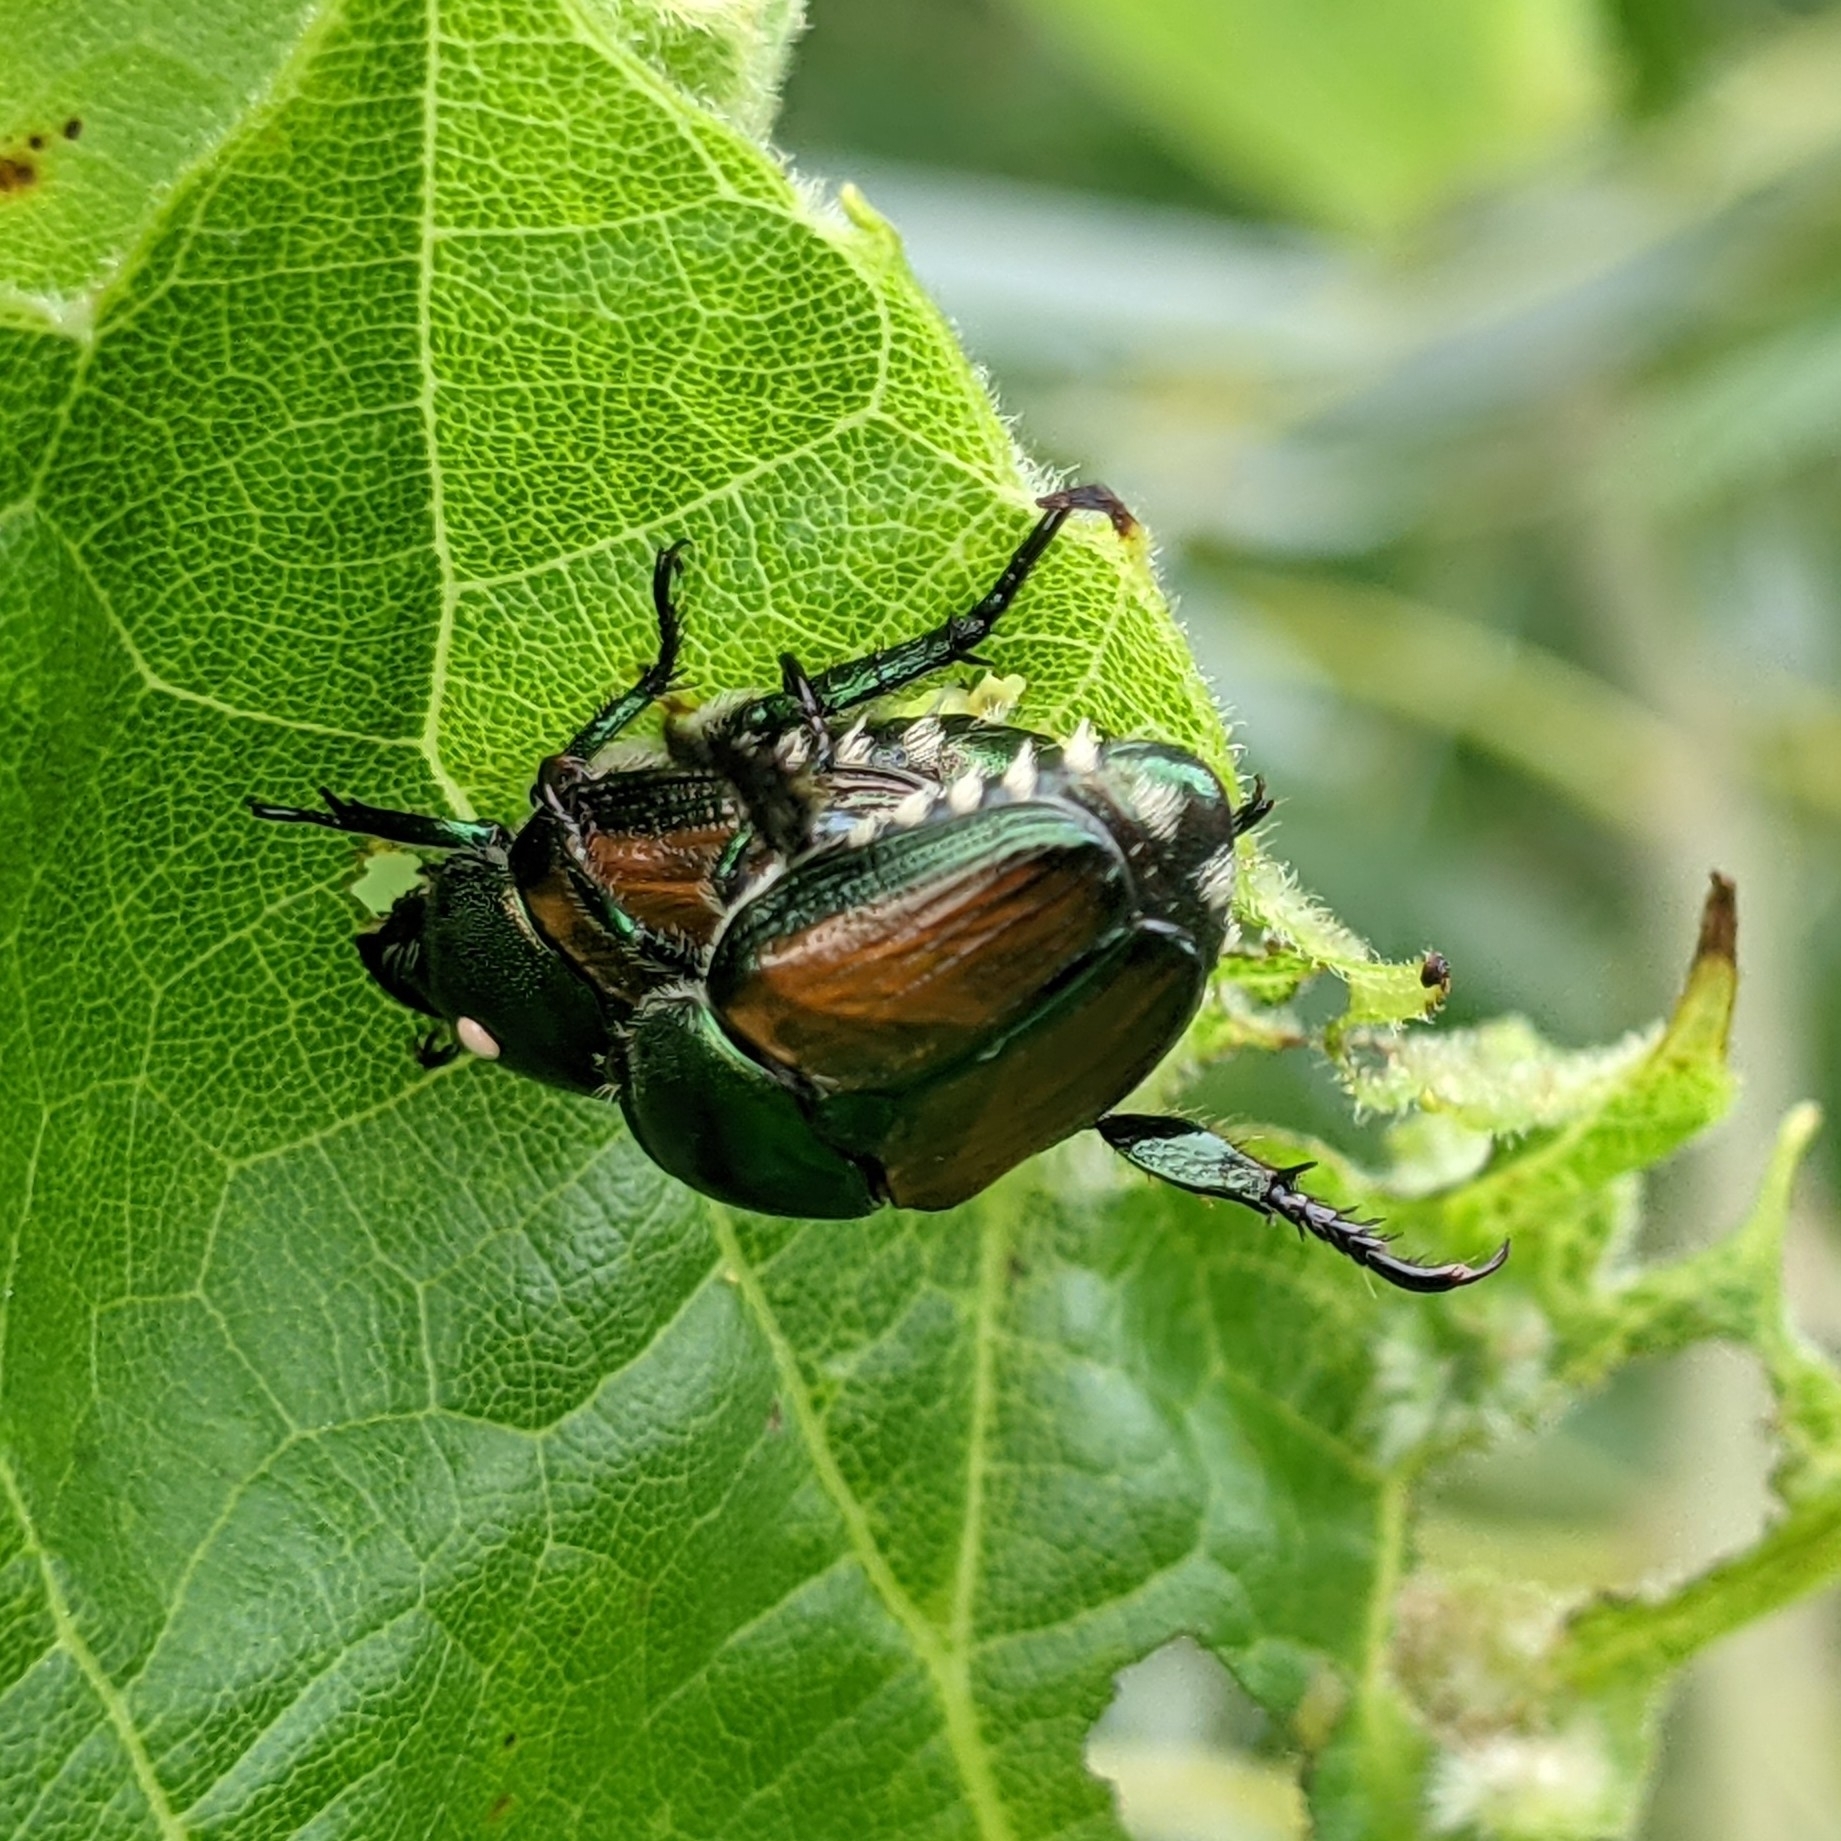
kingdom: Animalia
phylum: Arthropoda
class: Insecta
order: Coleoptera
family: Scarabaeidae
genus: Popillia
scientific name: Popillia japonica
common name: Japanese beetle
